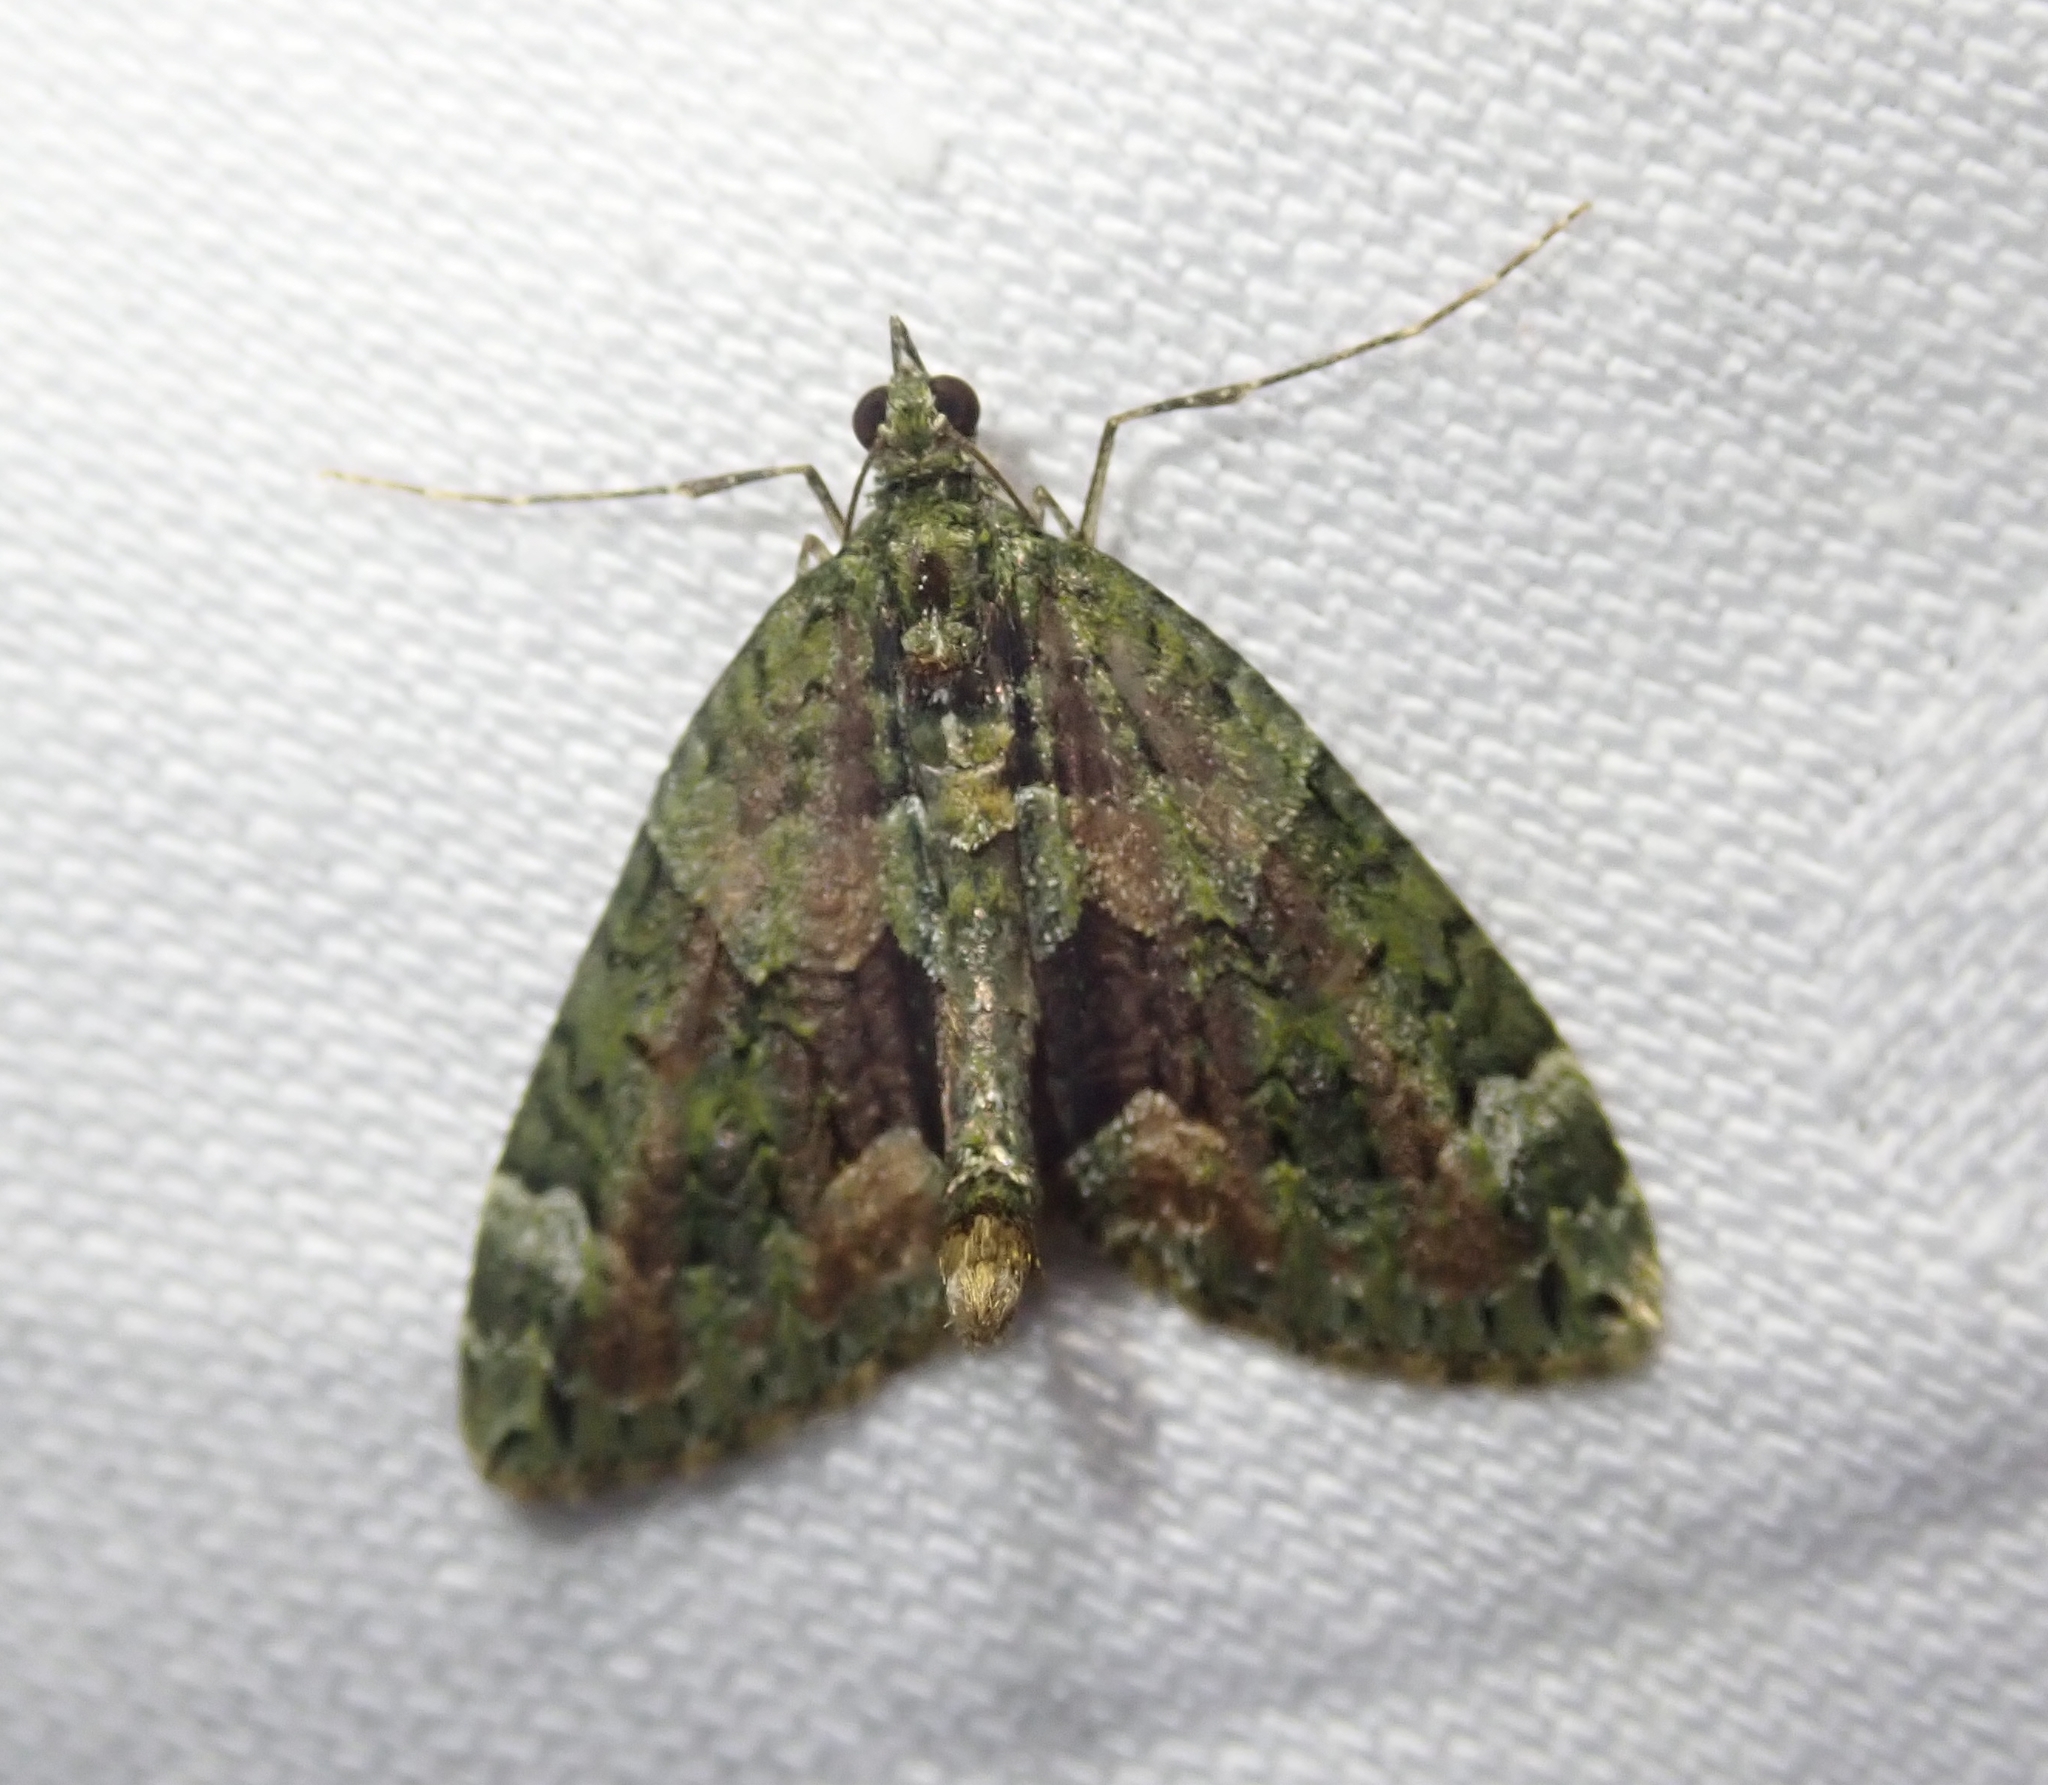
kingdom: Animalia
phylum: Arthropoda
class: Insecta
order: Lepidoptera
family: Geometridae
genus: Chloroclysta
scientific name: Chloroclysta siterata
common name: Red-green carpet
